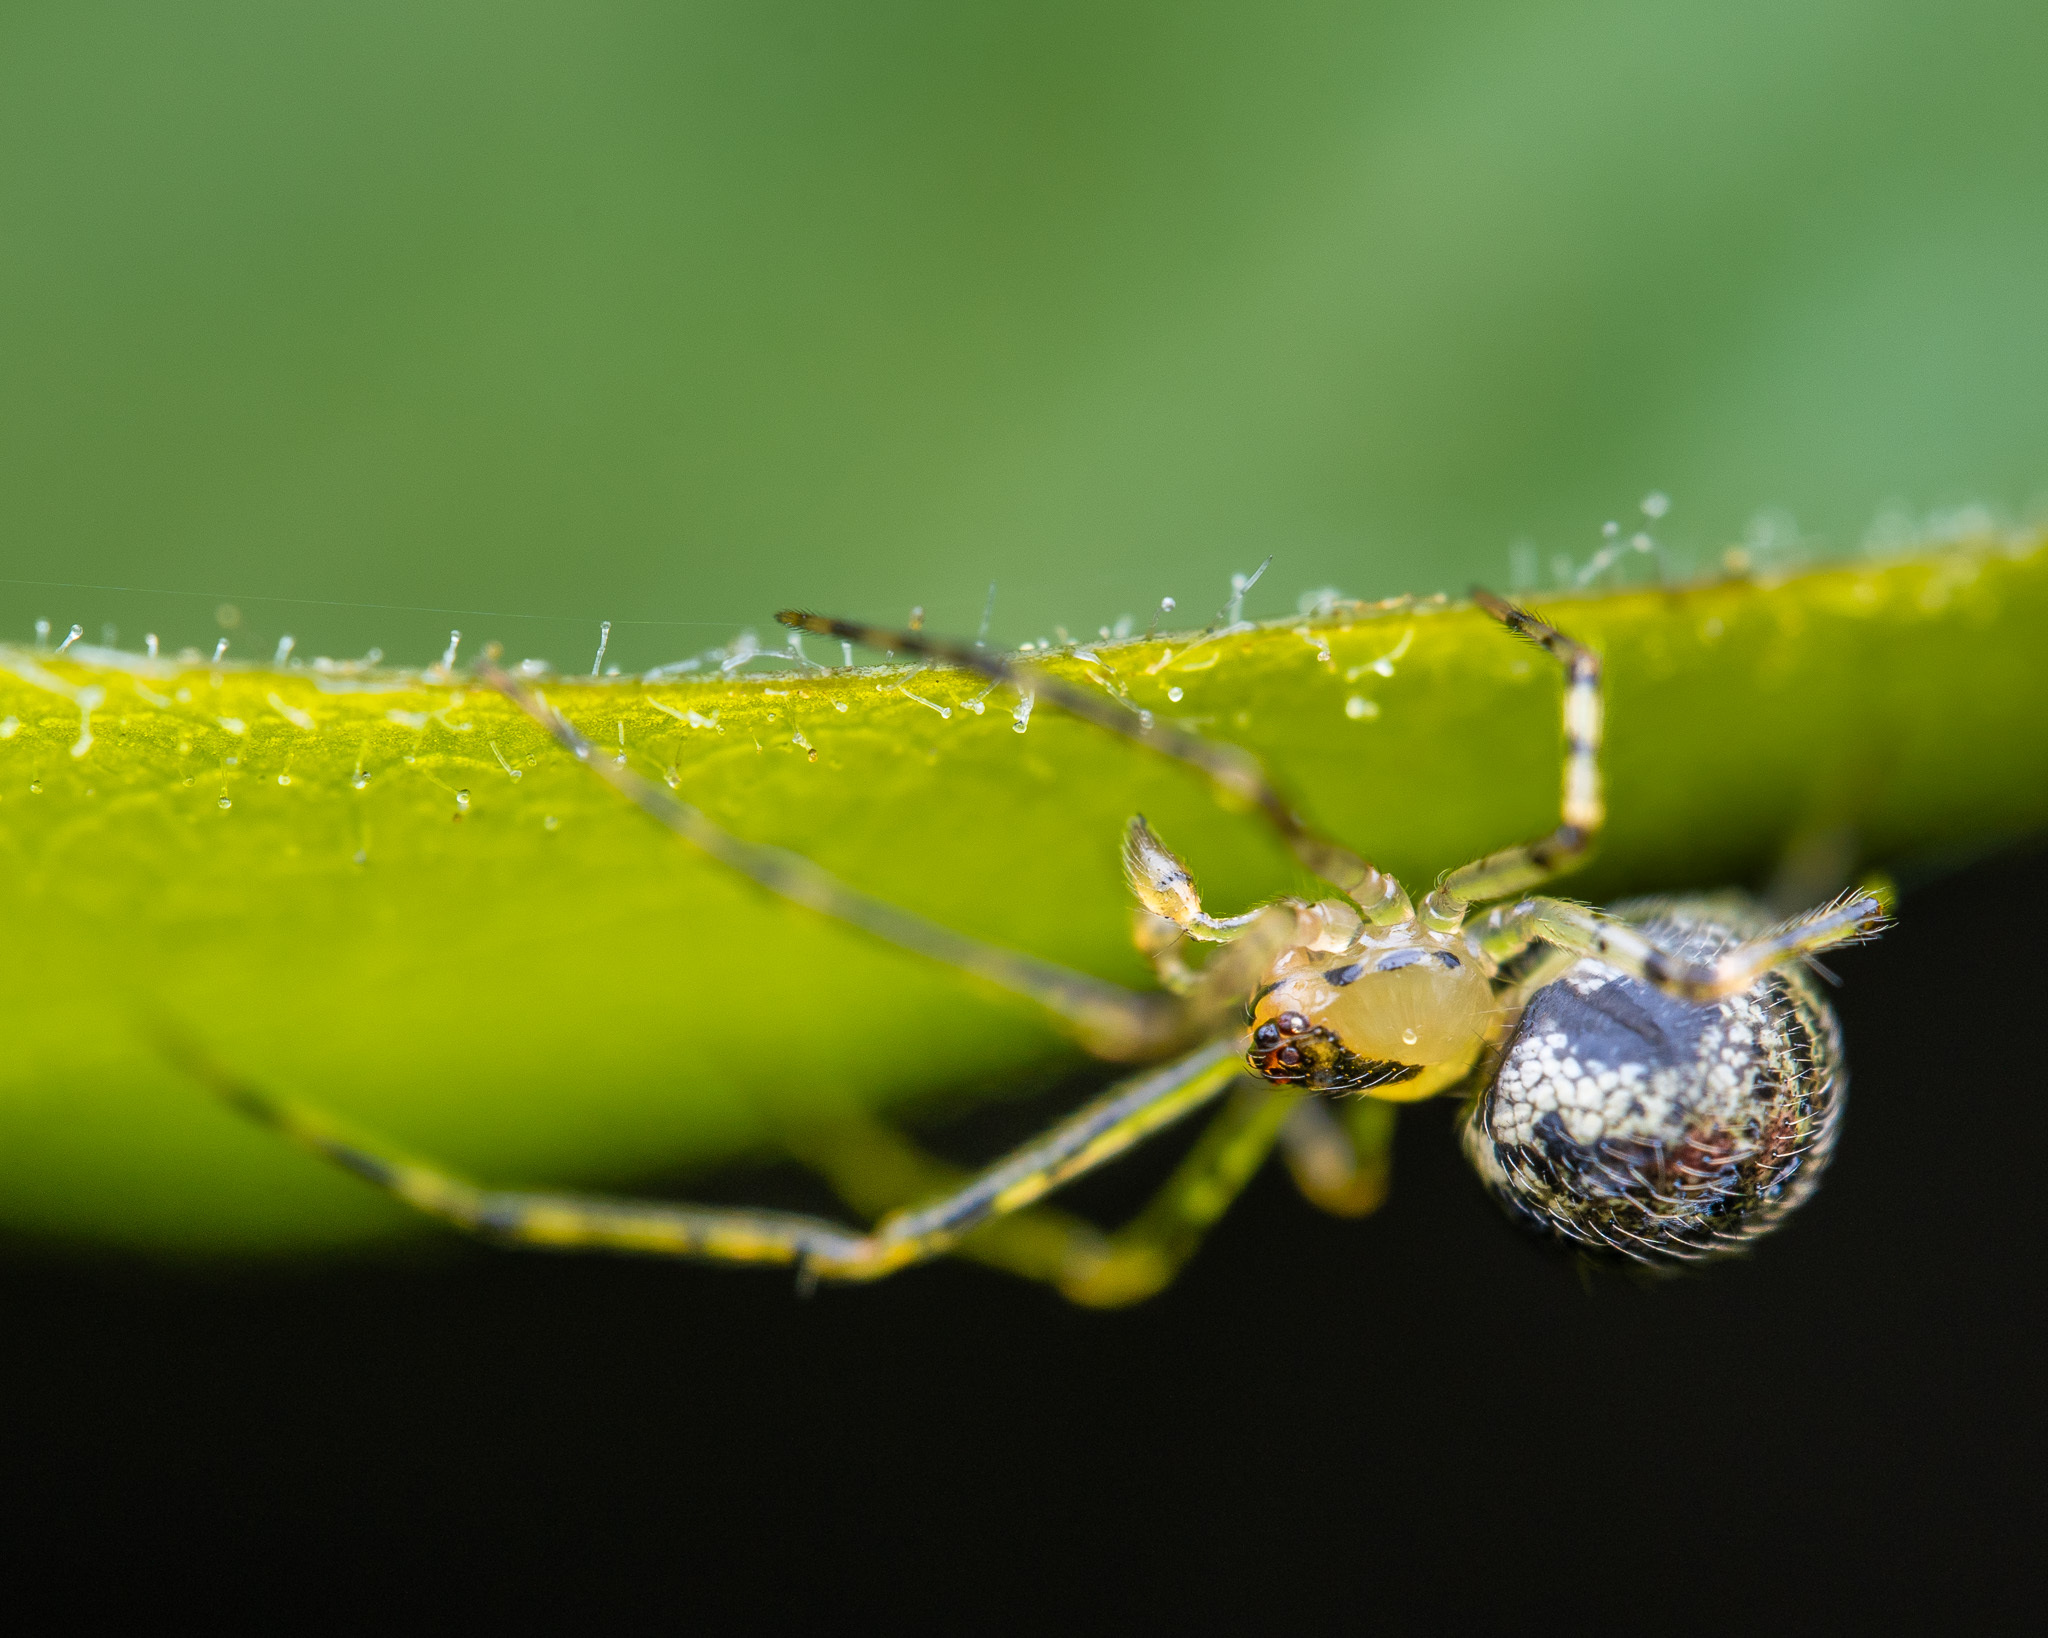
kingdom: Animalia
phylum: Arthropoda
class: Arachnida
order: Araneae
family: Theridiidae
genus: Platnickina
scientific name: Platnickina tincta
